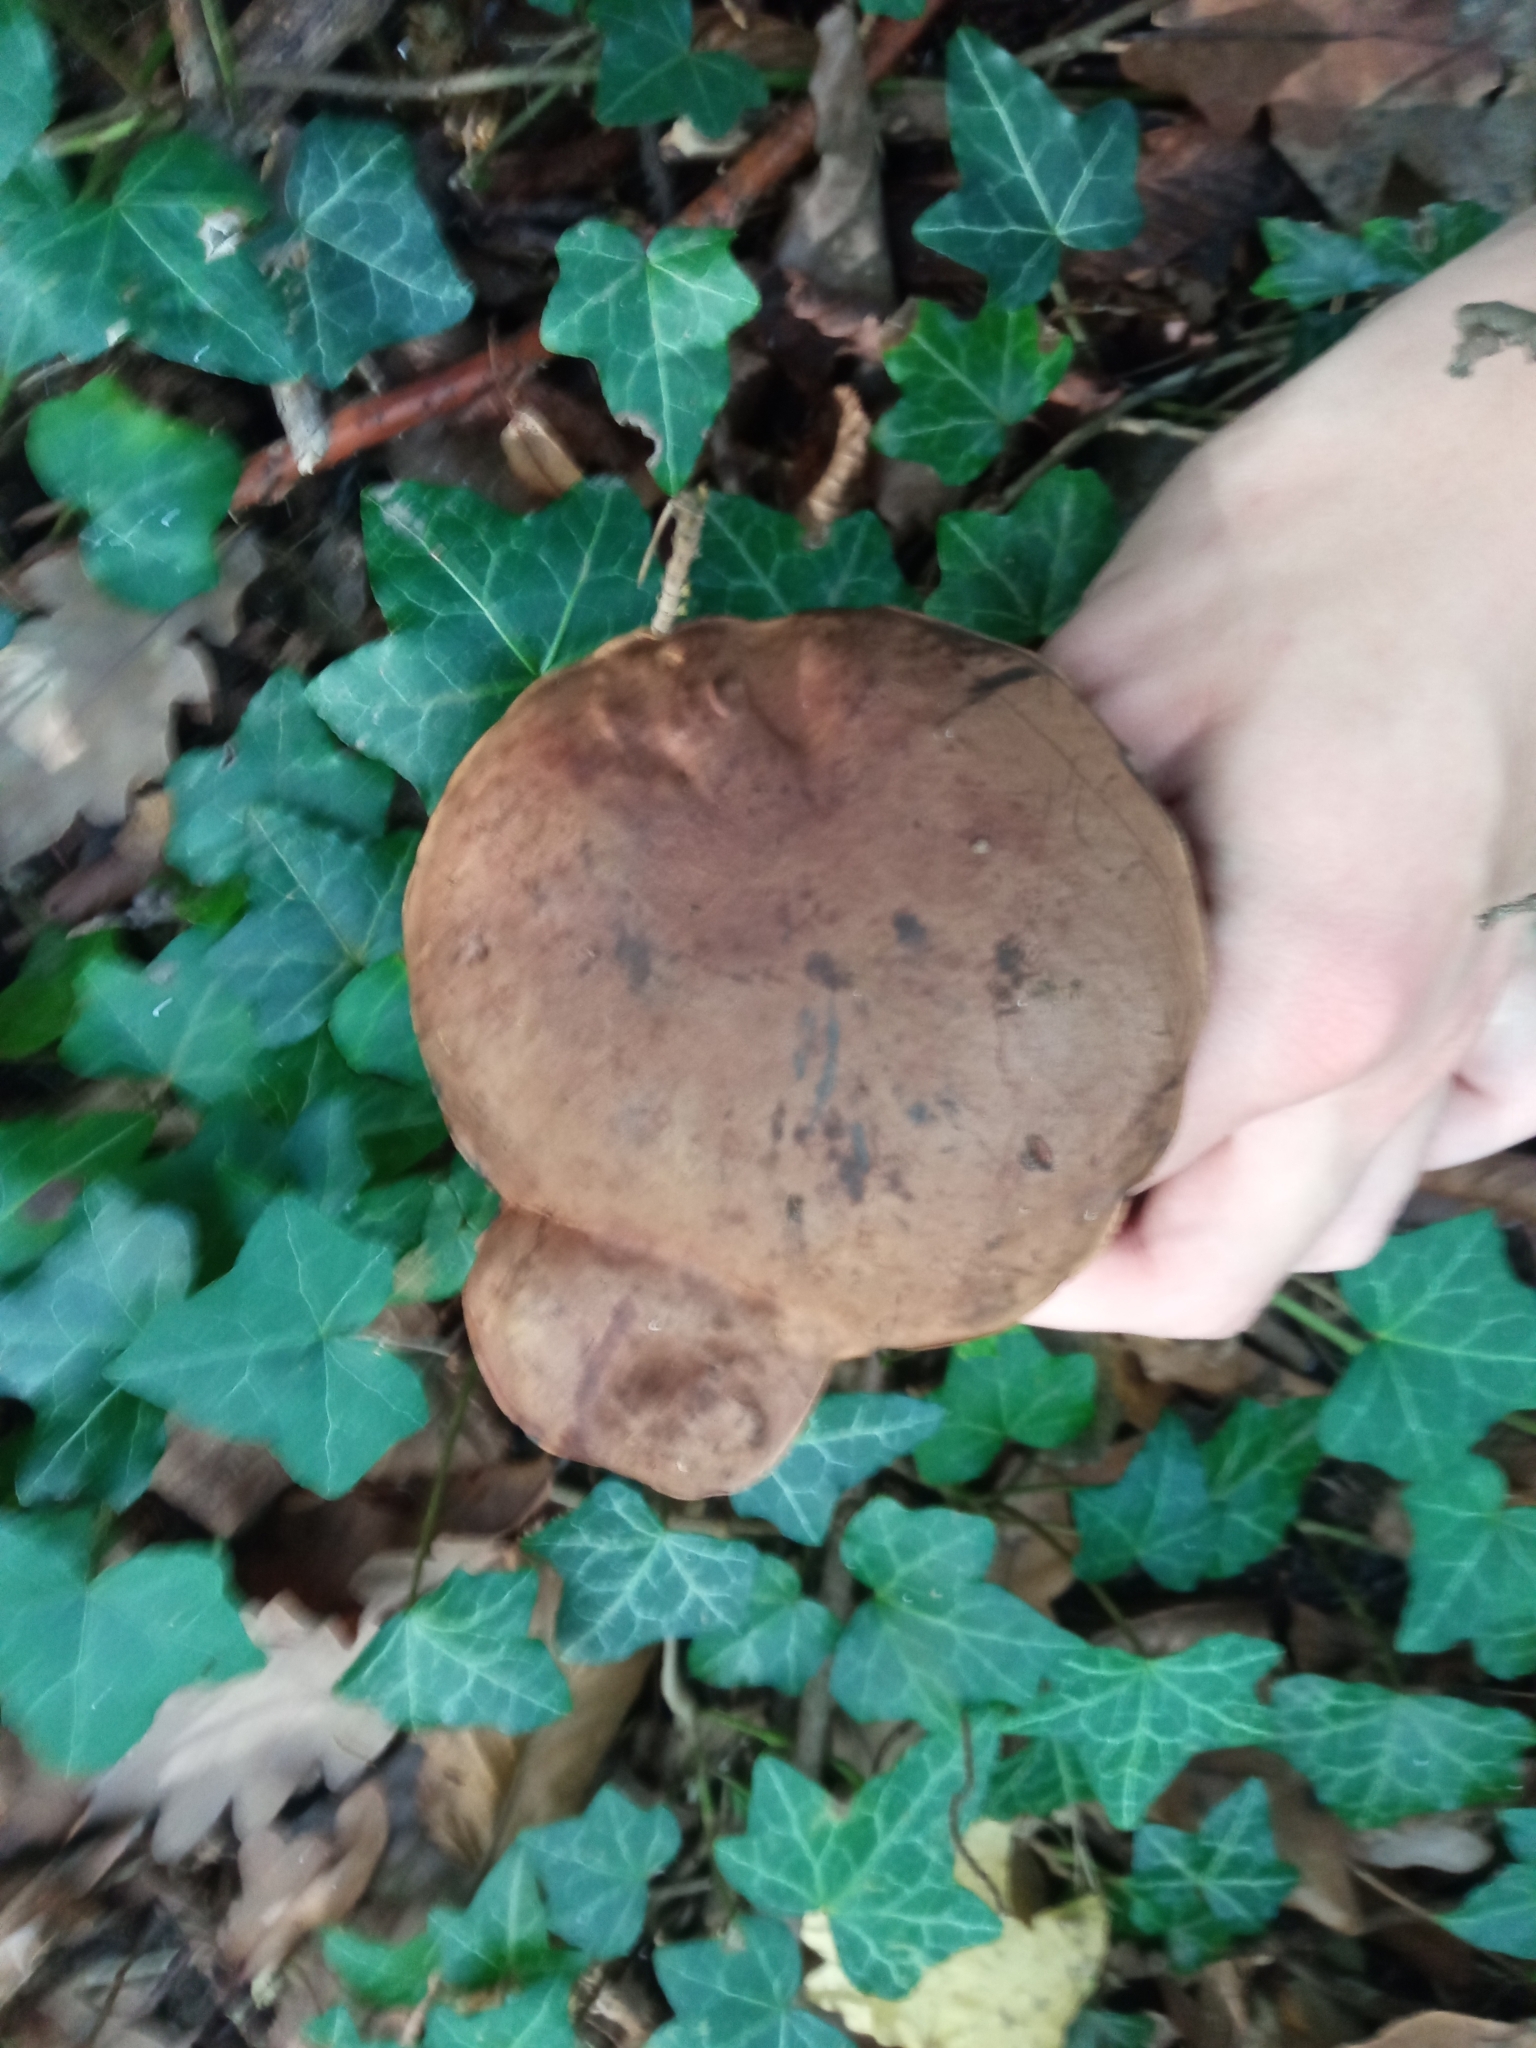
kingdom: Fungi
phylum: Basidiomycota
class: Agaricomycetes
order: Boletales
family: Boletaceae
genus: Neoboletus
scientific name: Neoboletus erythropus
